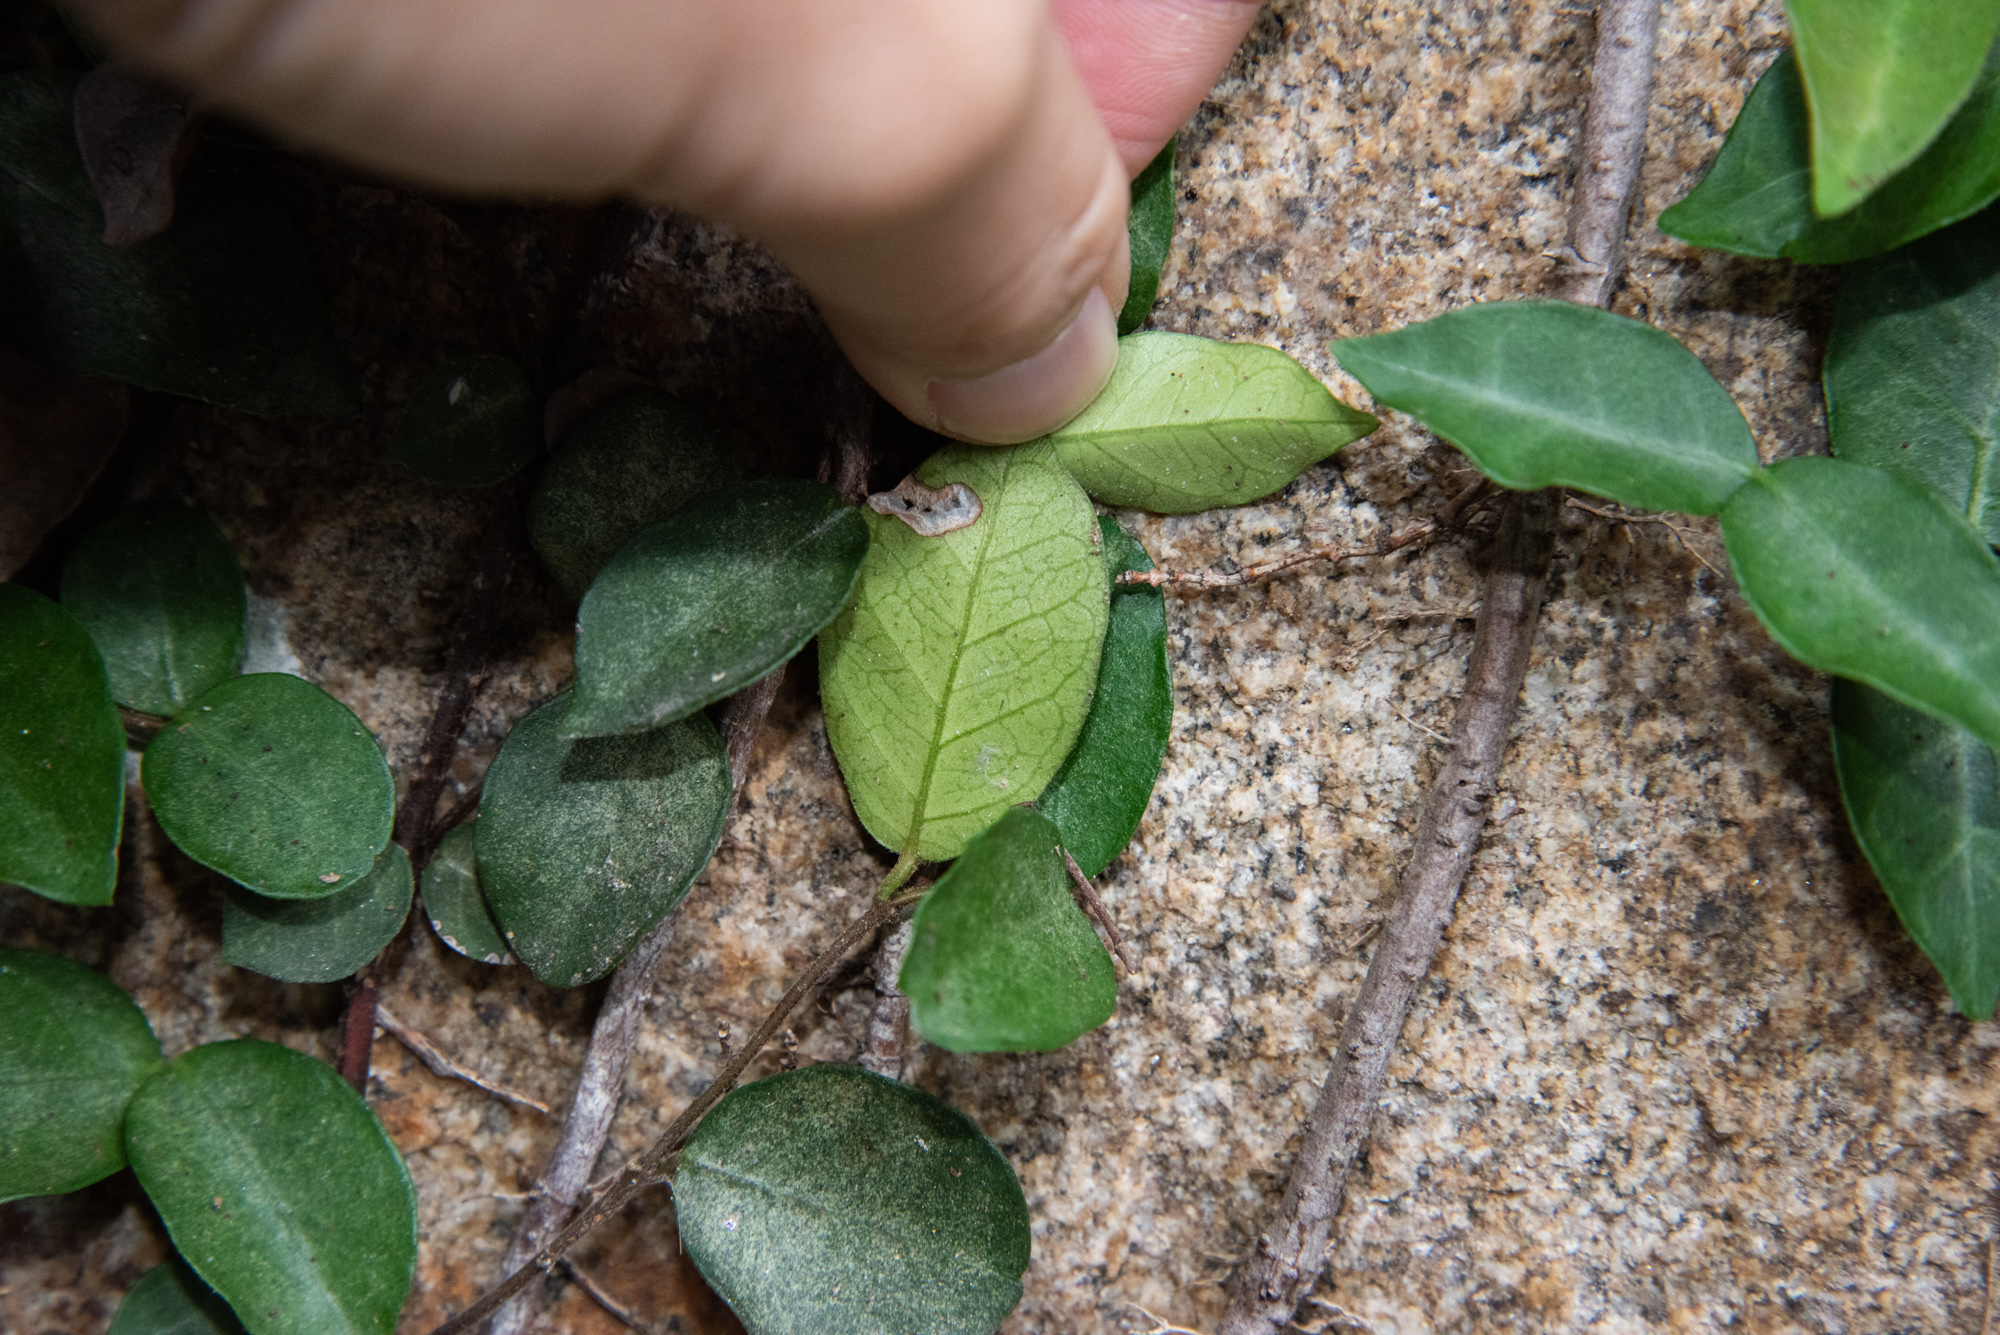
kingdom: Plantae
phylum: Tracheophyta
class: Magnoliopsida
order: Gentianales
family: Apocynaceae
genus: Trachelospermum
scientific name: Trachelospermum jasminoides
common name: Confederate jasmine
